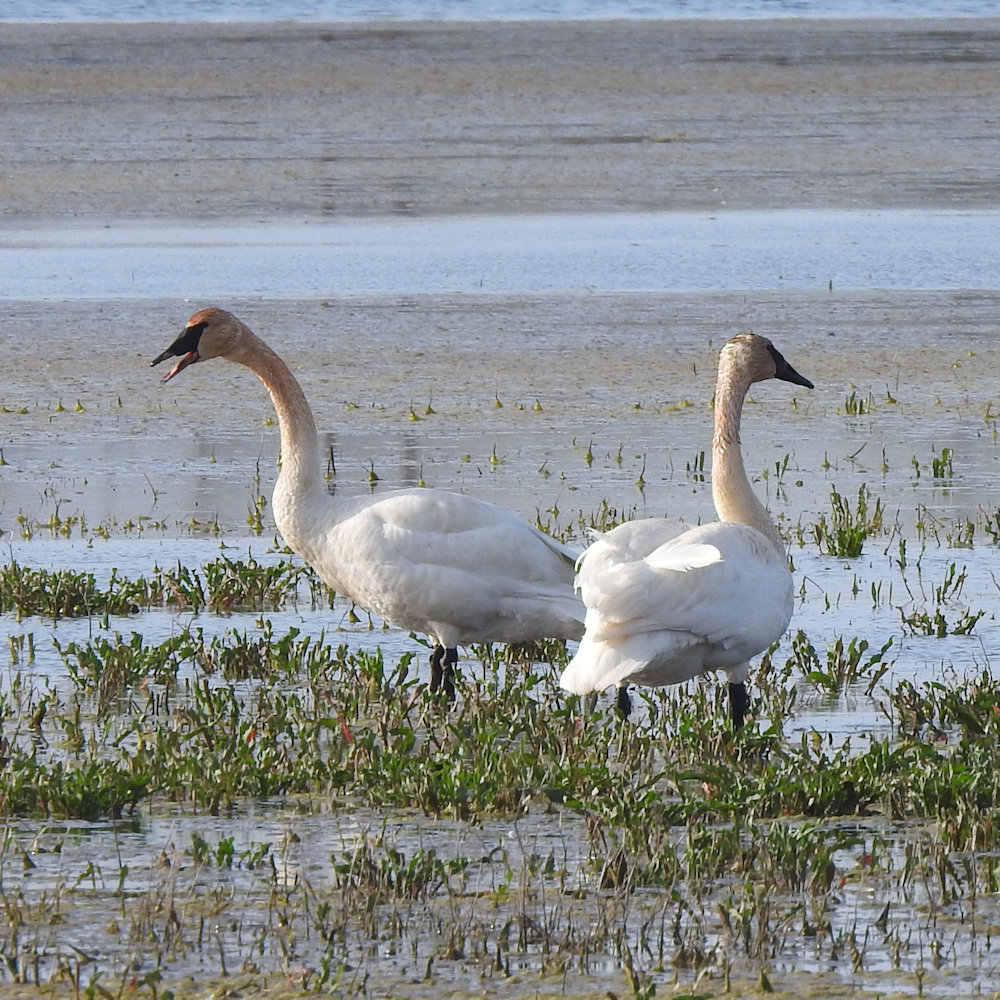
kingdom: Animalia
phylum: Chordata
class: Aves
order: Anseriformes
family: Anatidae
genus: Cygnus
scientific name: Cygnus buccinator
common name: Trumpeter swan
